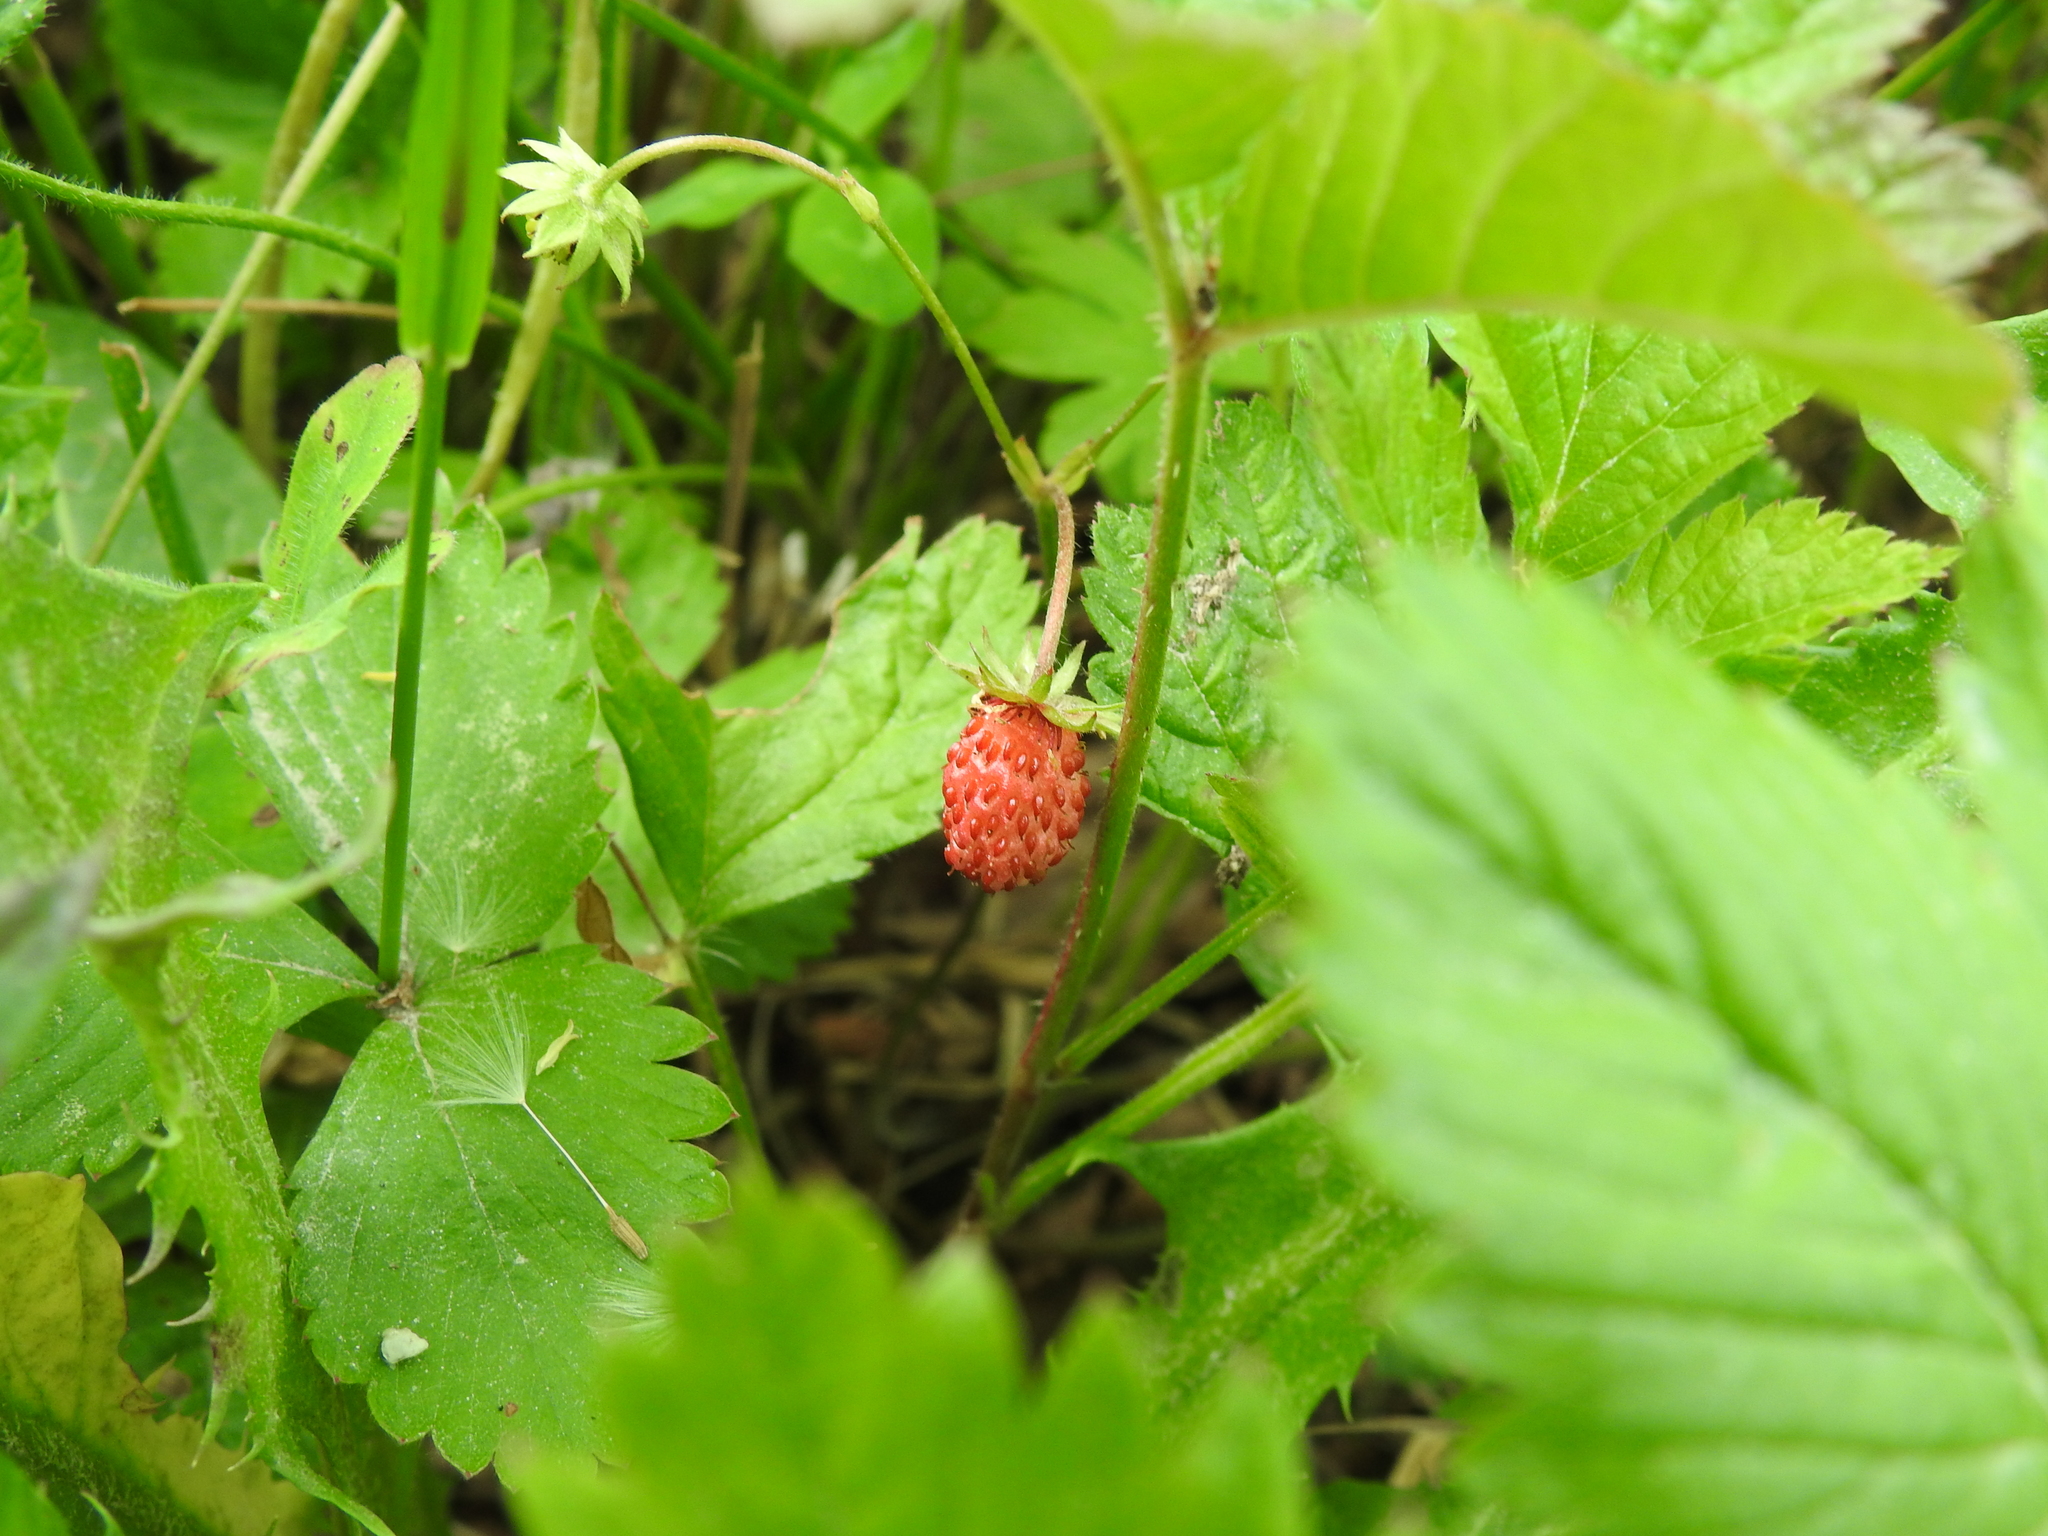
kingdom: Plantae
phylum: Tracheophyta
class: Magnoliopsida
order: Rosales
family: Rosaceae
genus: Fragaria
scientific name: Fragaria vesca
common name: Wild strawberry
